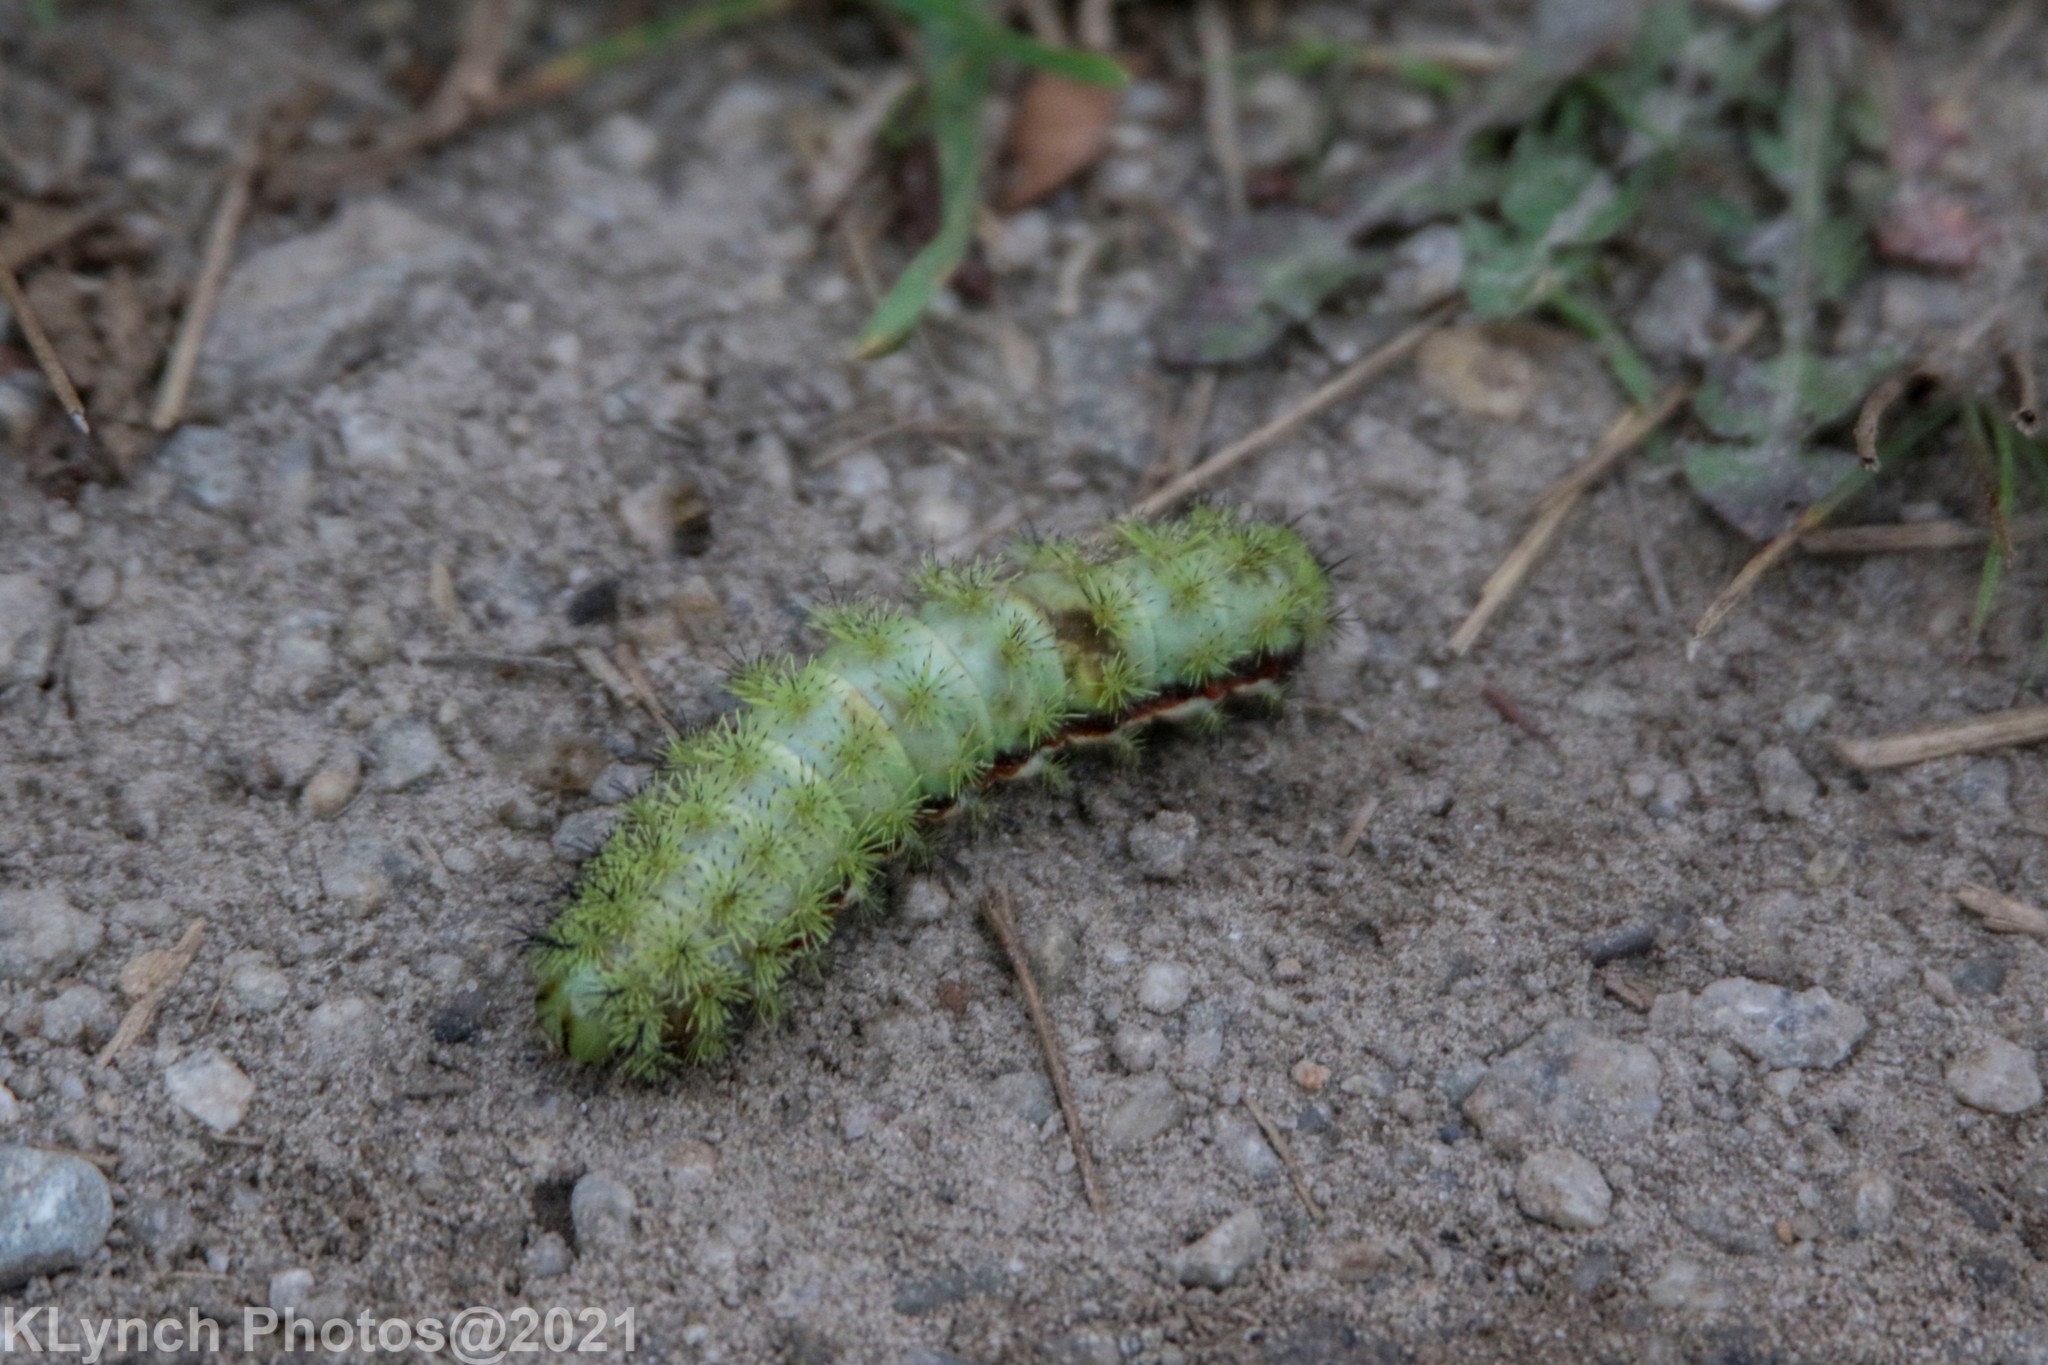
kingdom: Animalia
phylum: Arthropoda
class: Insecta
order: Lepidoptera
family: Saturniidae
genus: Automeris
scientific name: Automeris io
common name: Io moth
